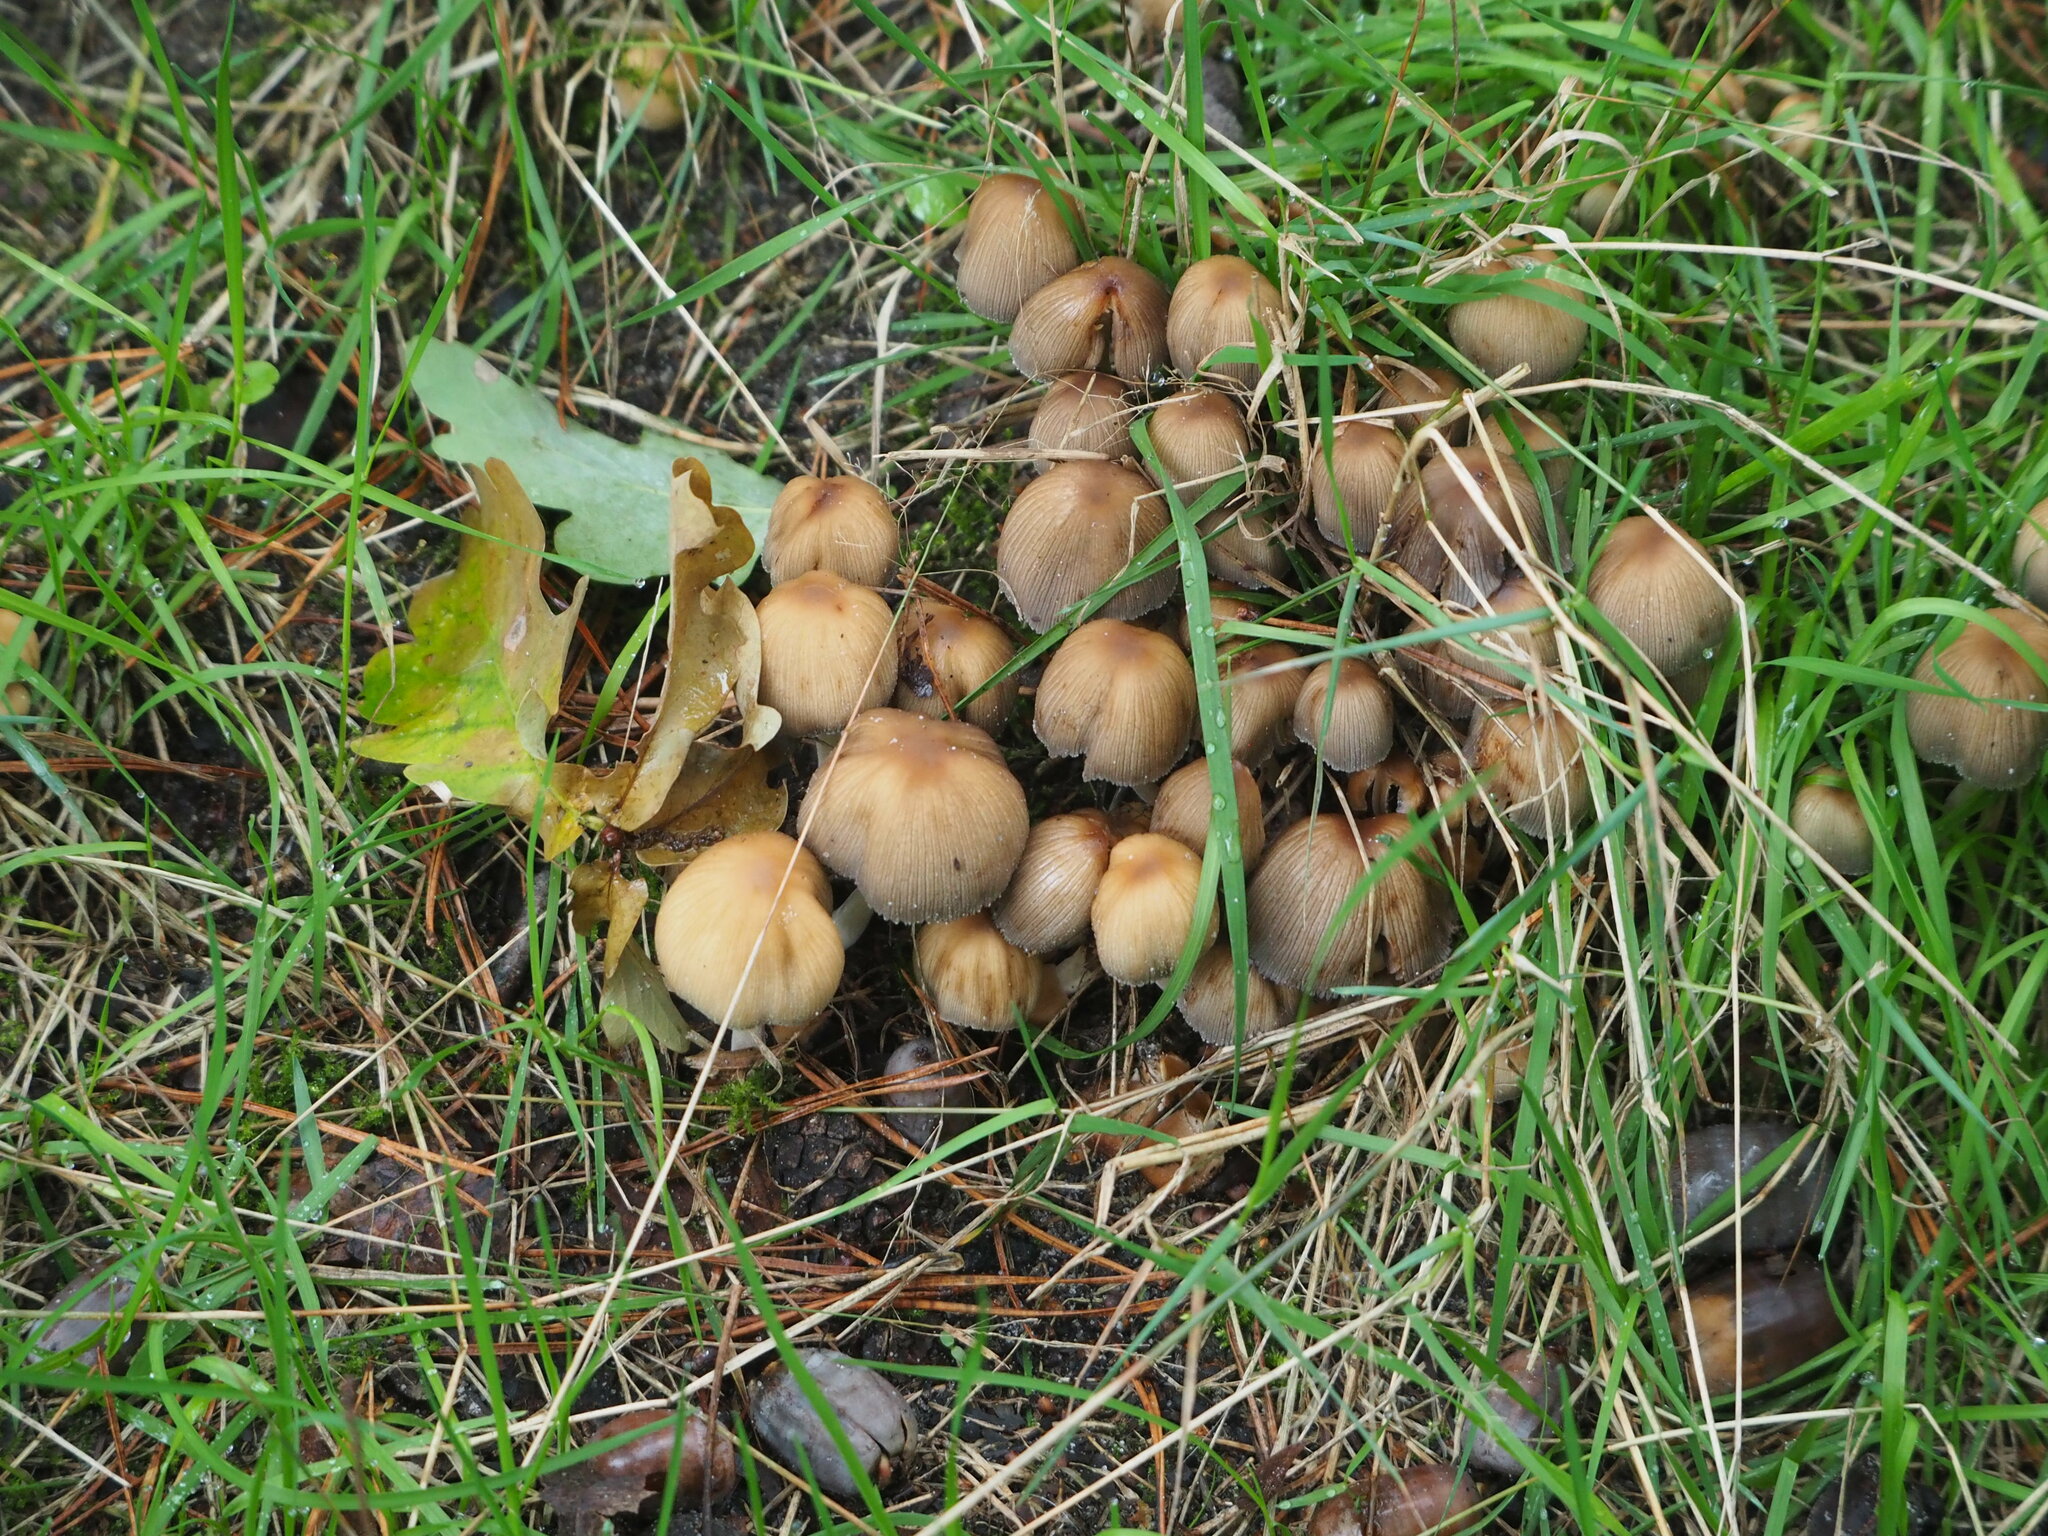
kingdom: Fungi
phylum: Basidiomycota
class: Agaricomycetes
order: Agaricales
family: Psathyrellaceae
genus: Coprinellus
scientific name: Coprinellus micaceus
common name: Glistening ink-cap
